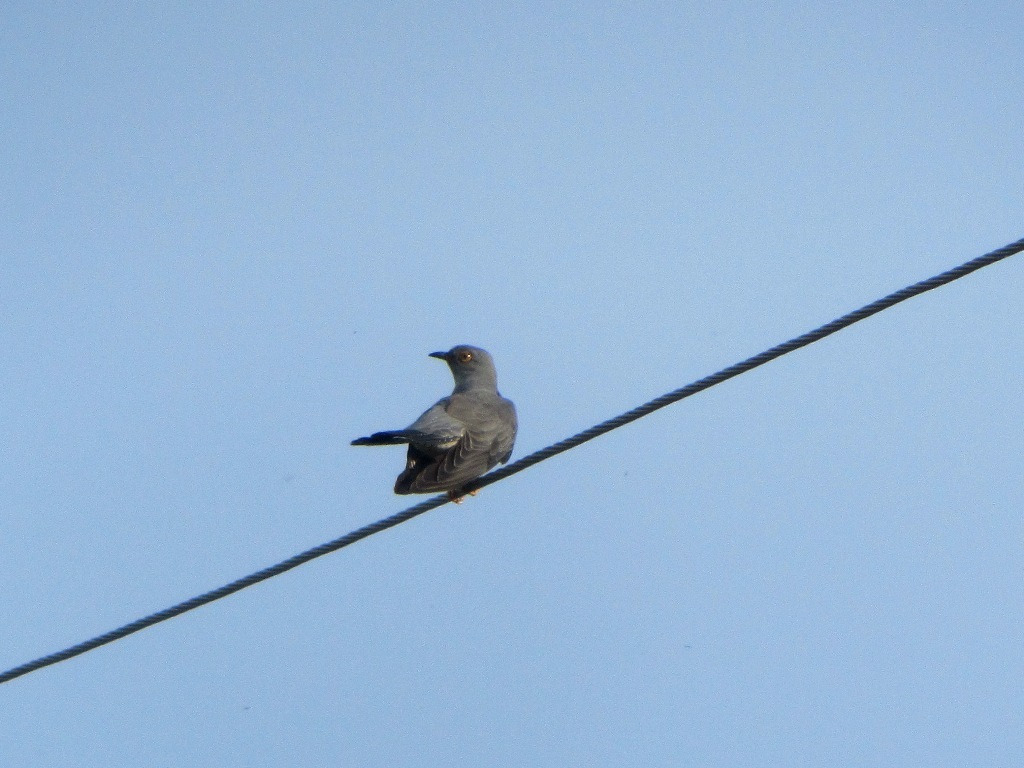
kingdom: Animalia
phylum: Chordata
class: Aves
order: Cuculiformes
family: Cuculidae
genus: Cuculus
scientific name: Cuculus canorus
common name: Common cuckoo
